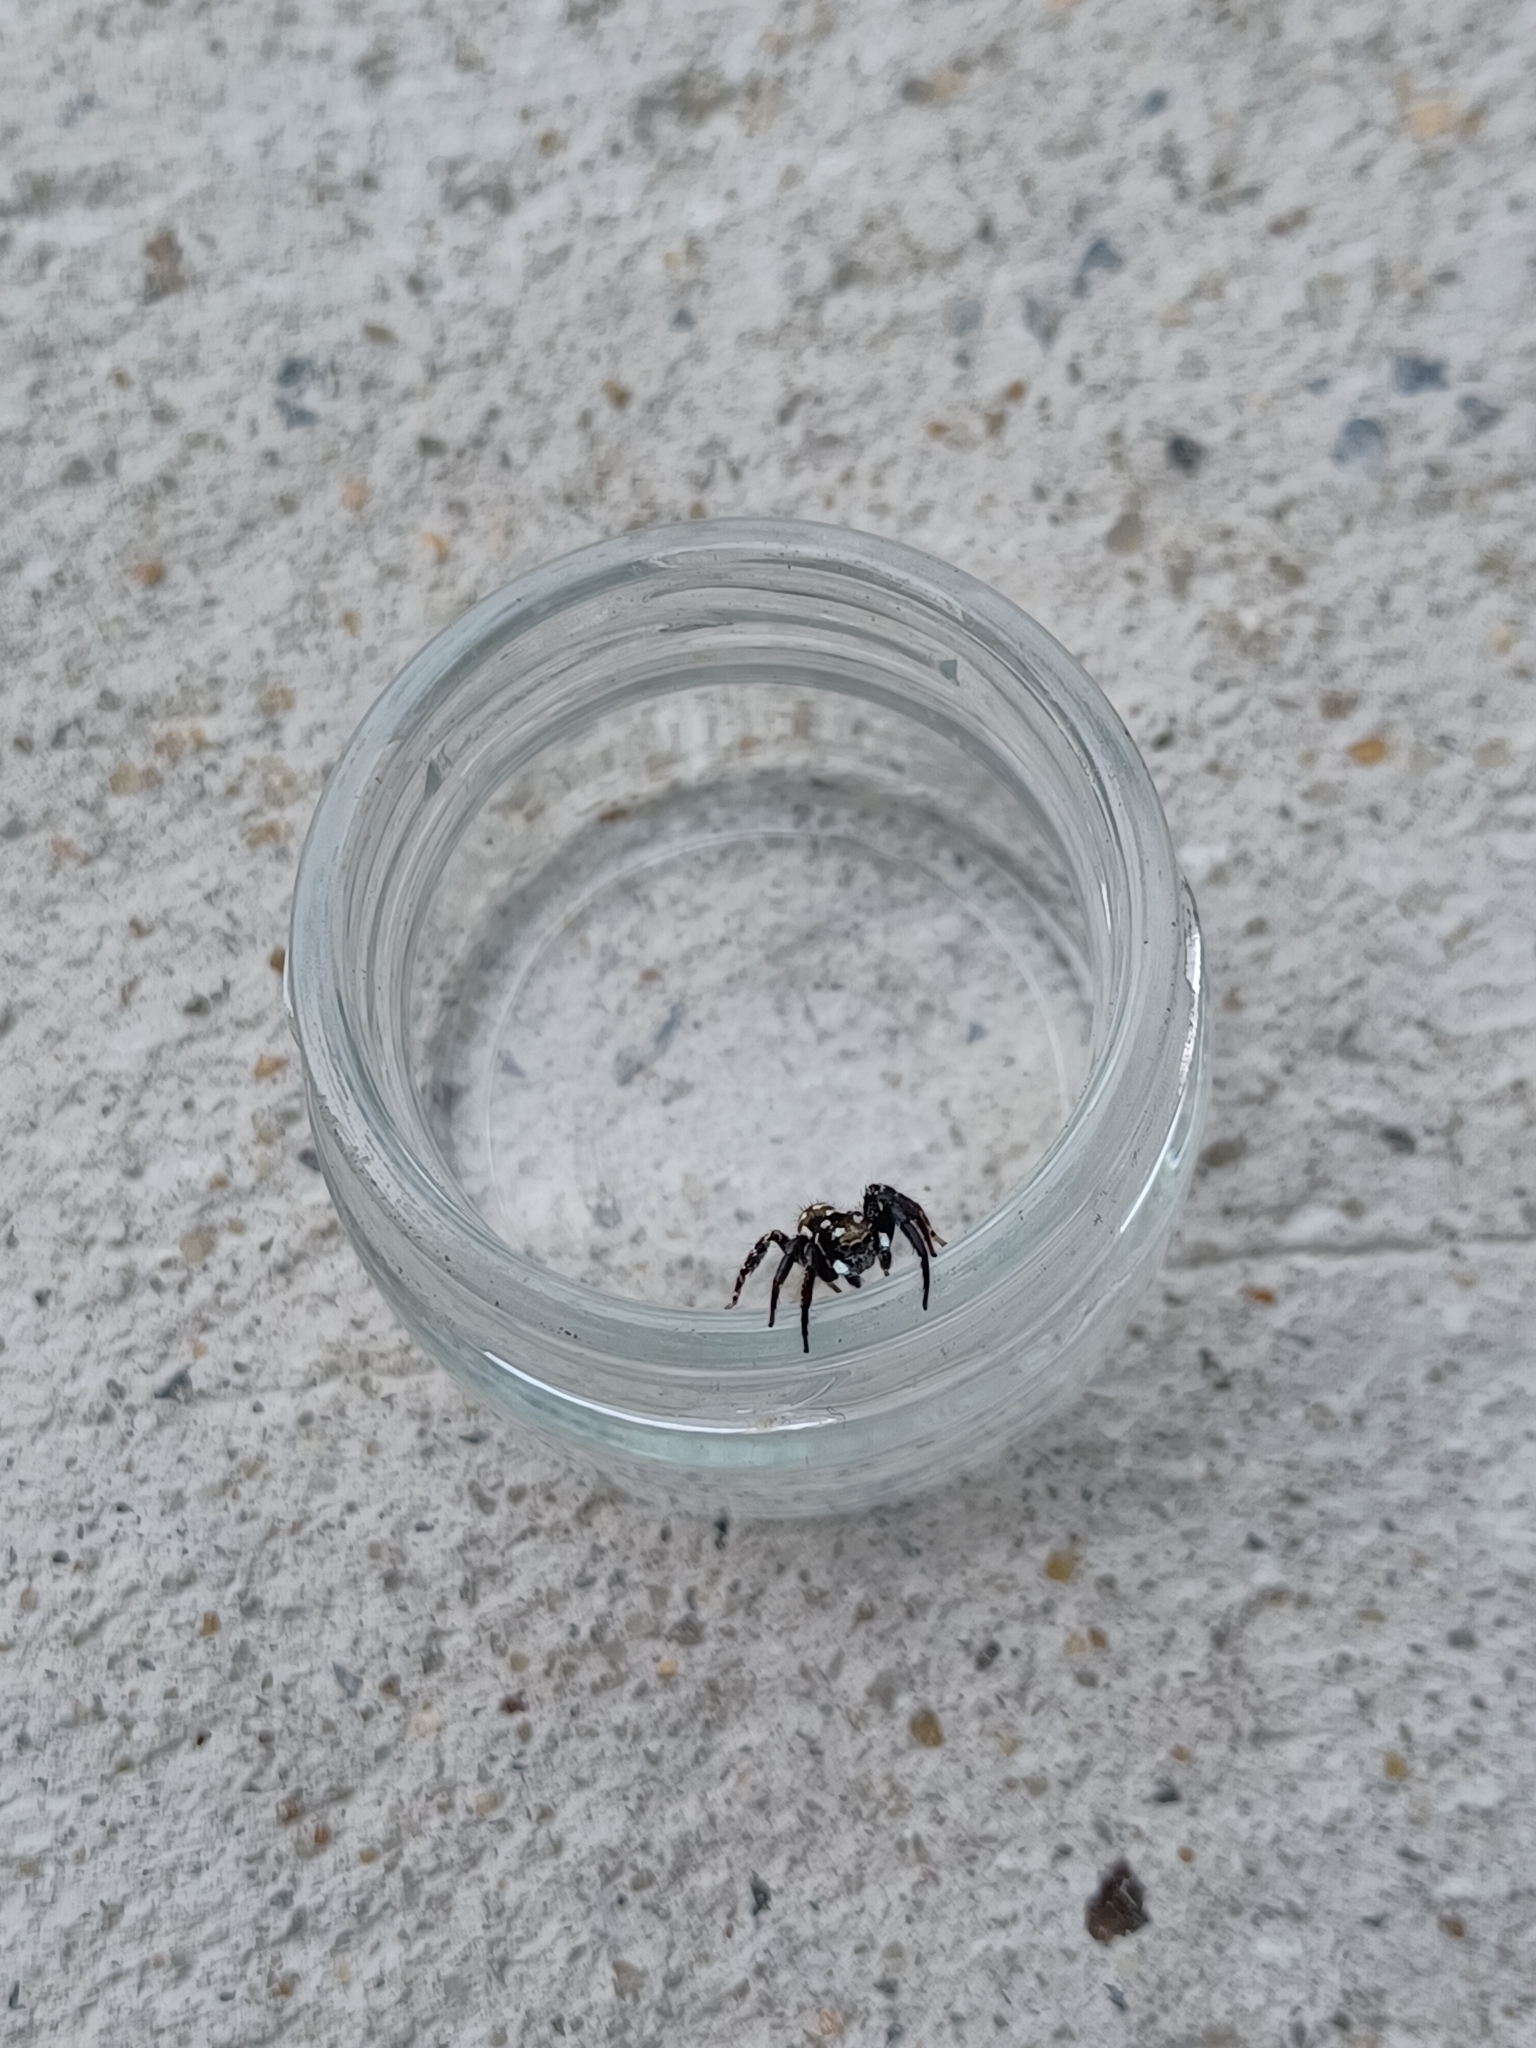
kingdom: Animalia
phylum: Arthropoda
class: Arachnida
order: Araneae
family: Salticidae
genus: Anasaitis
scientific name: Anasaitis canosa
